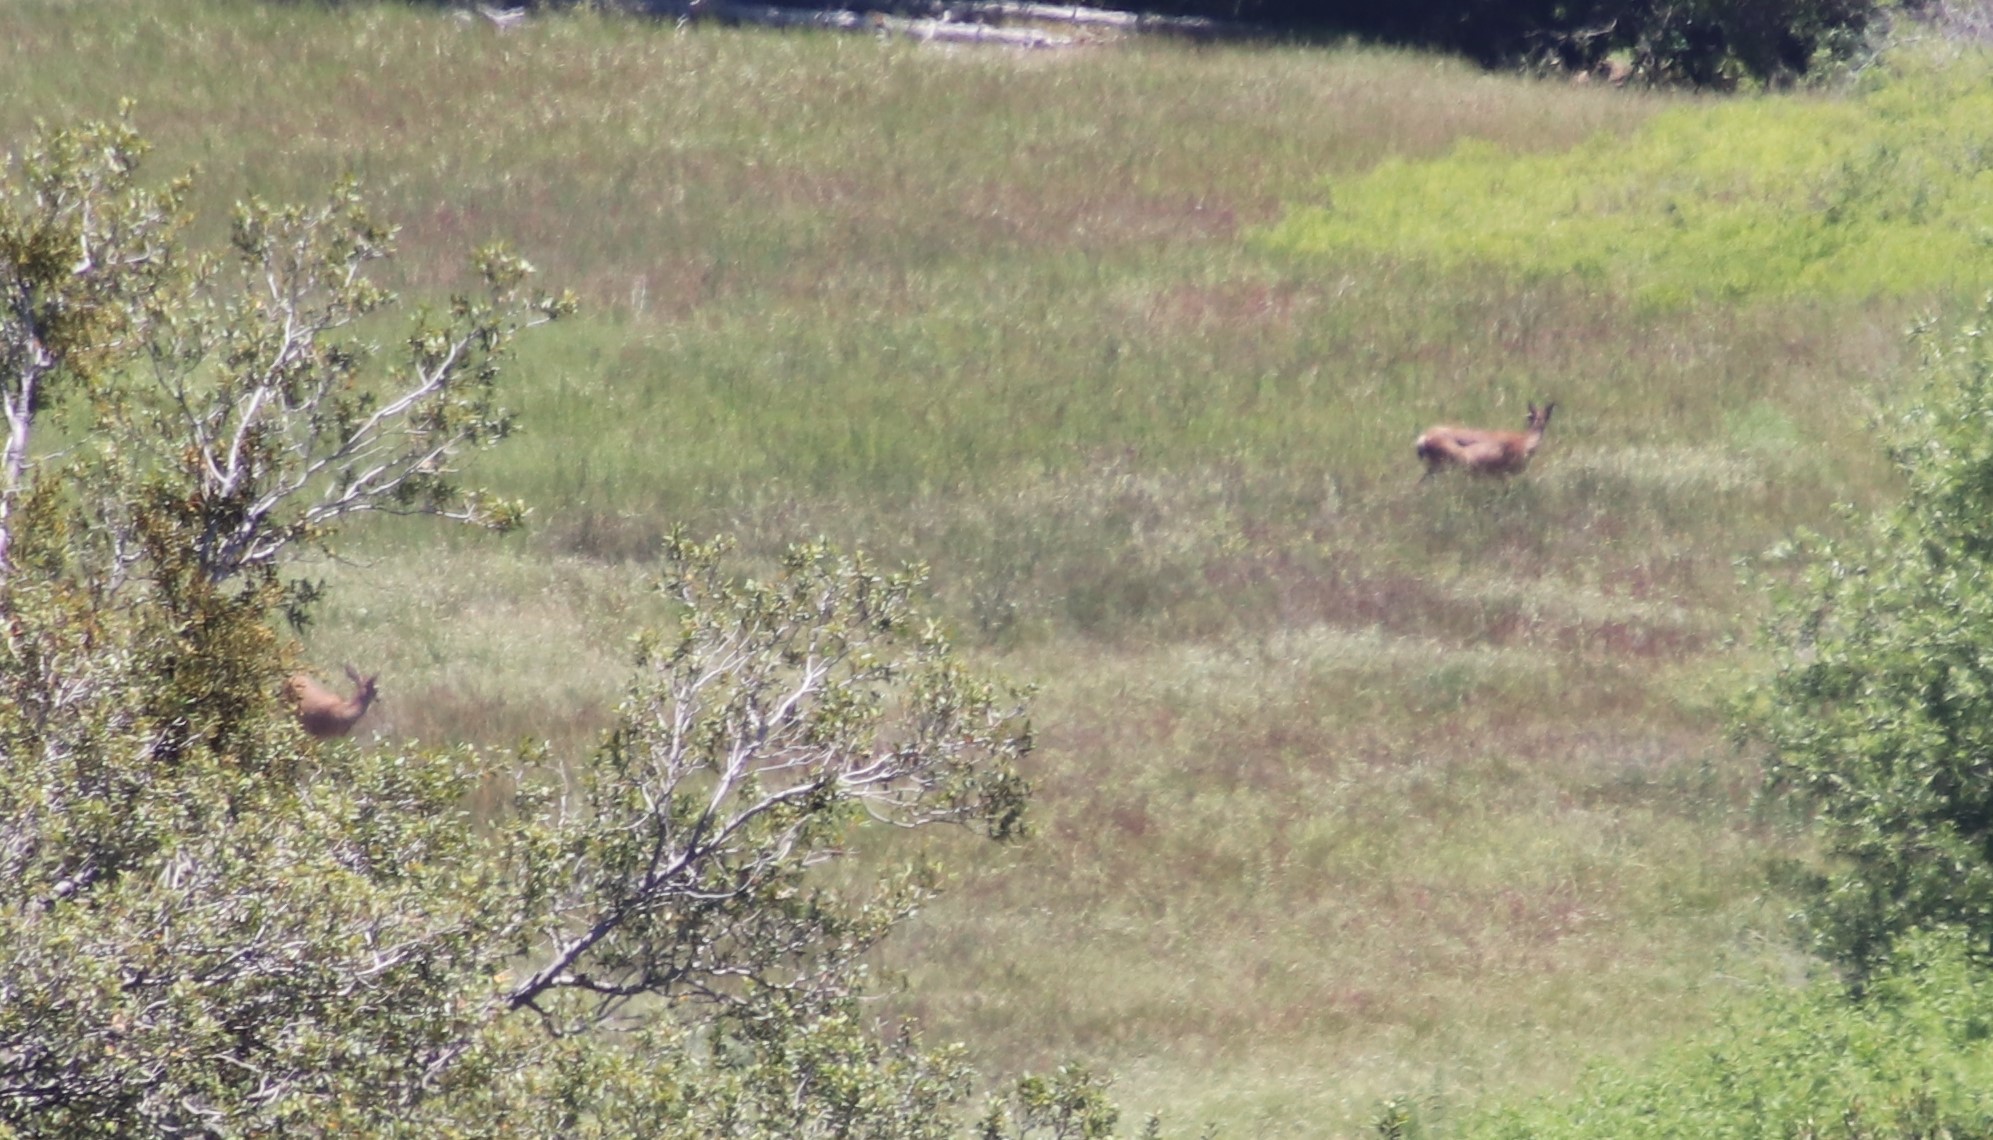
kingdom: Animalia
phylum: Chordata
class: Mammalia
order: Artiodactyla
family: Cervidae
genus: Odocoileus
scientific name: Odocoileus hemionus
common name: Mule deer
